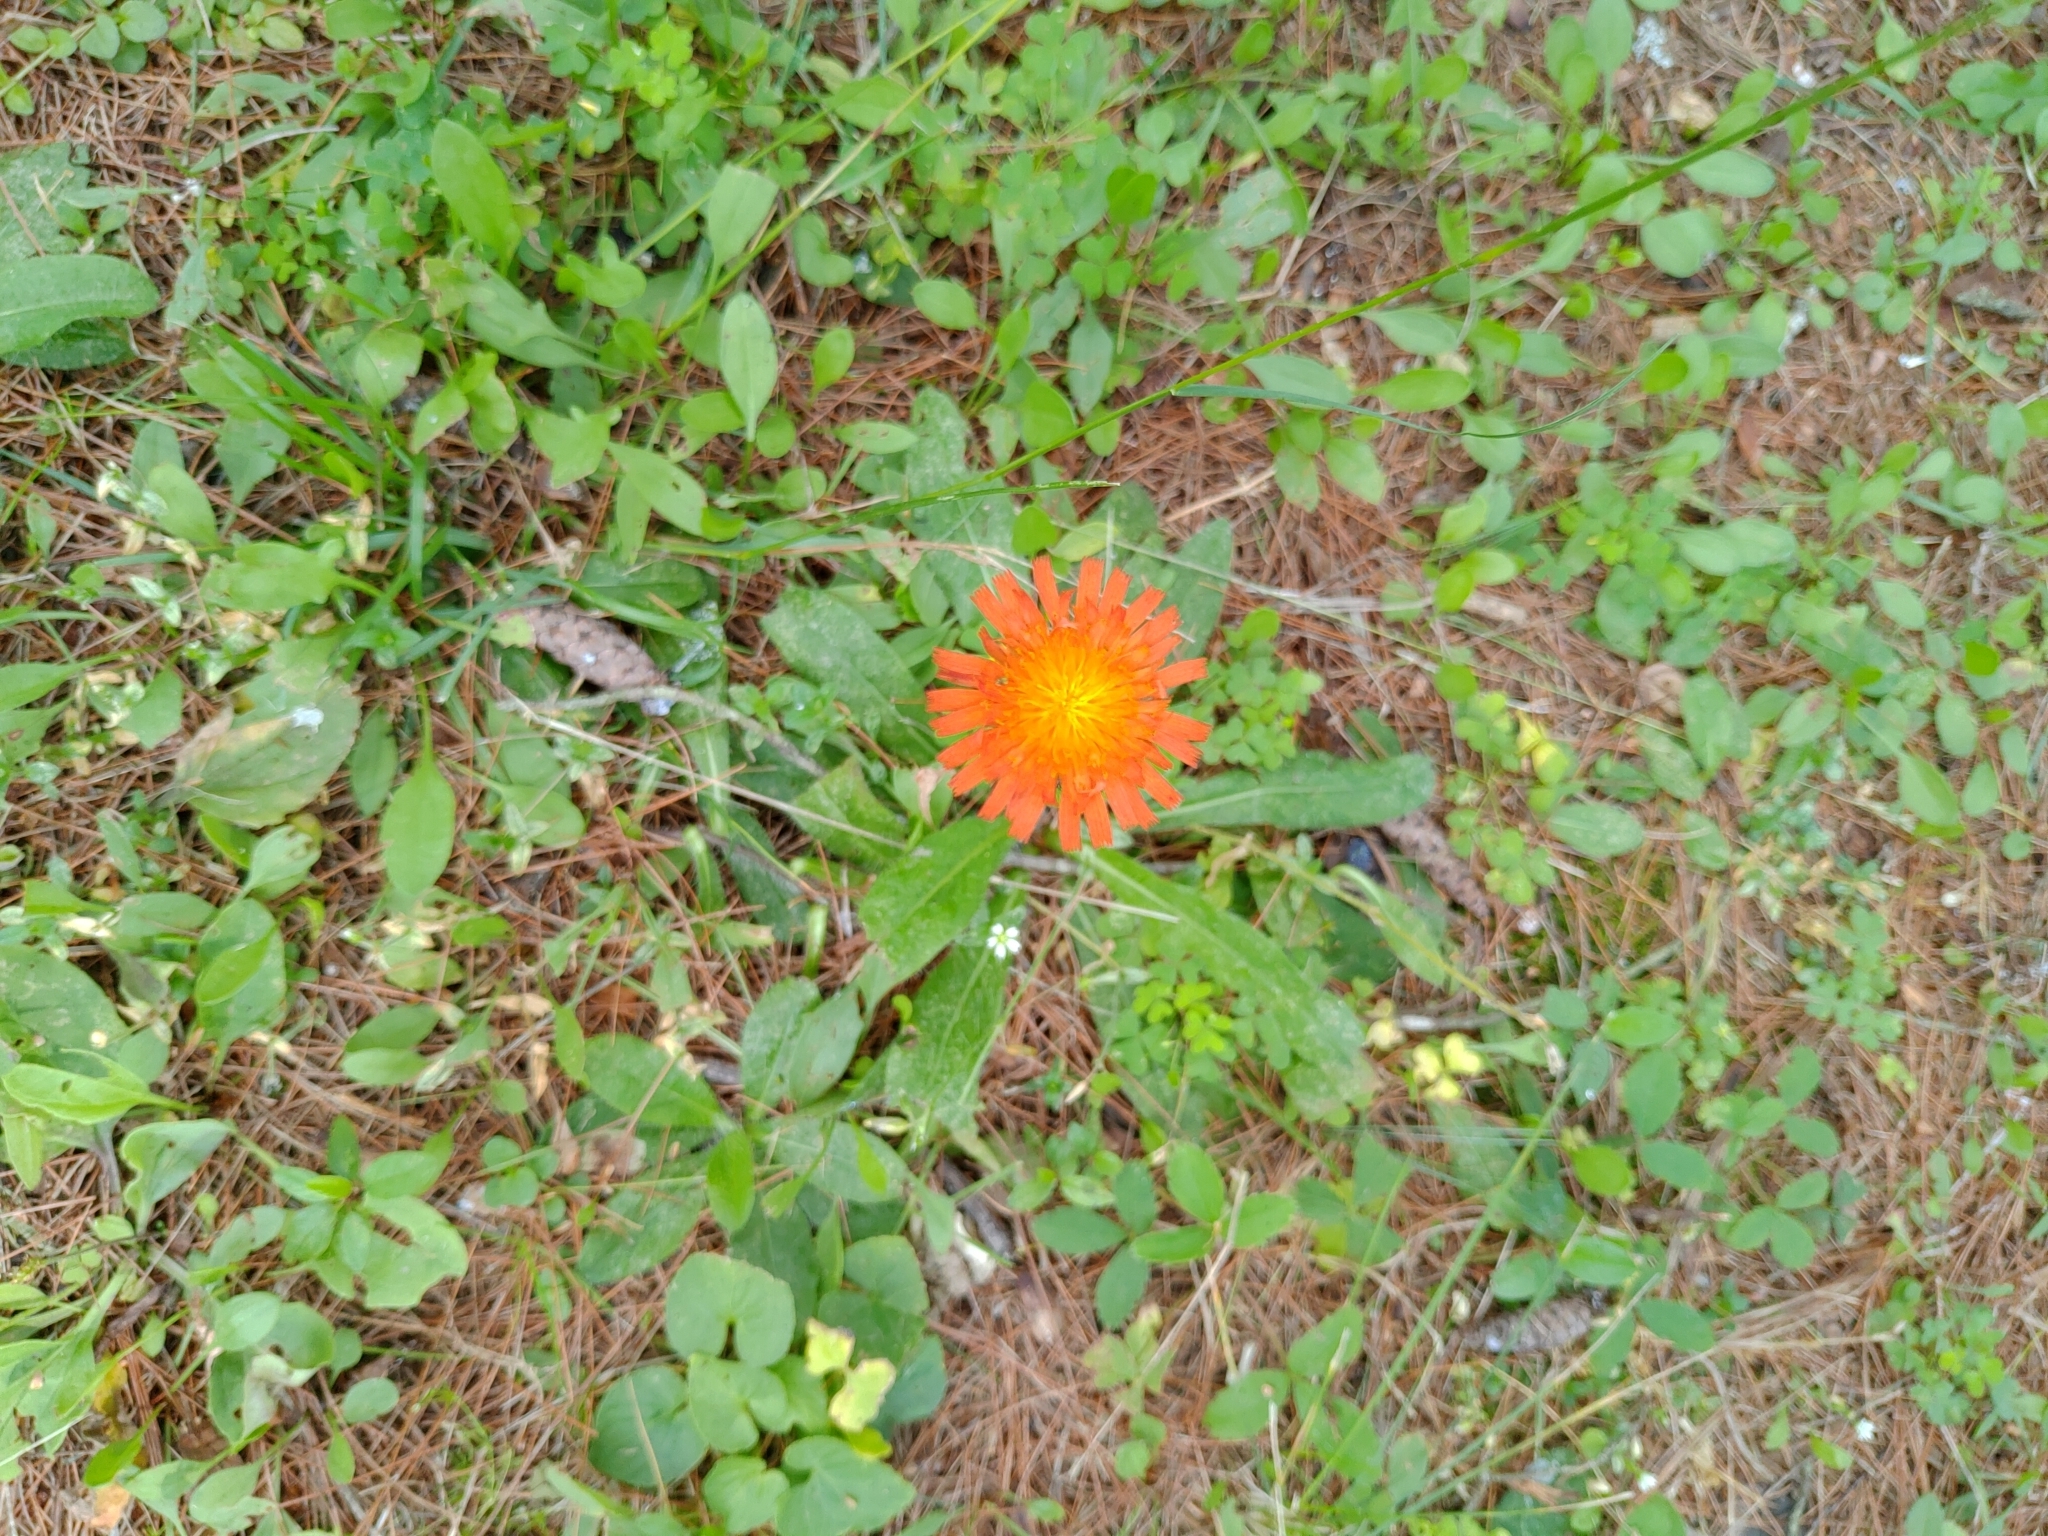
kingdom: Plantae
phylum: Tracheophyta
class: Magnoliopsida
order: Asterales
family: Asteraceae
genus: Pilosella
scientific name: Pilosella aurantiaca
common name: Fox-and-cubs
